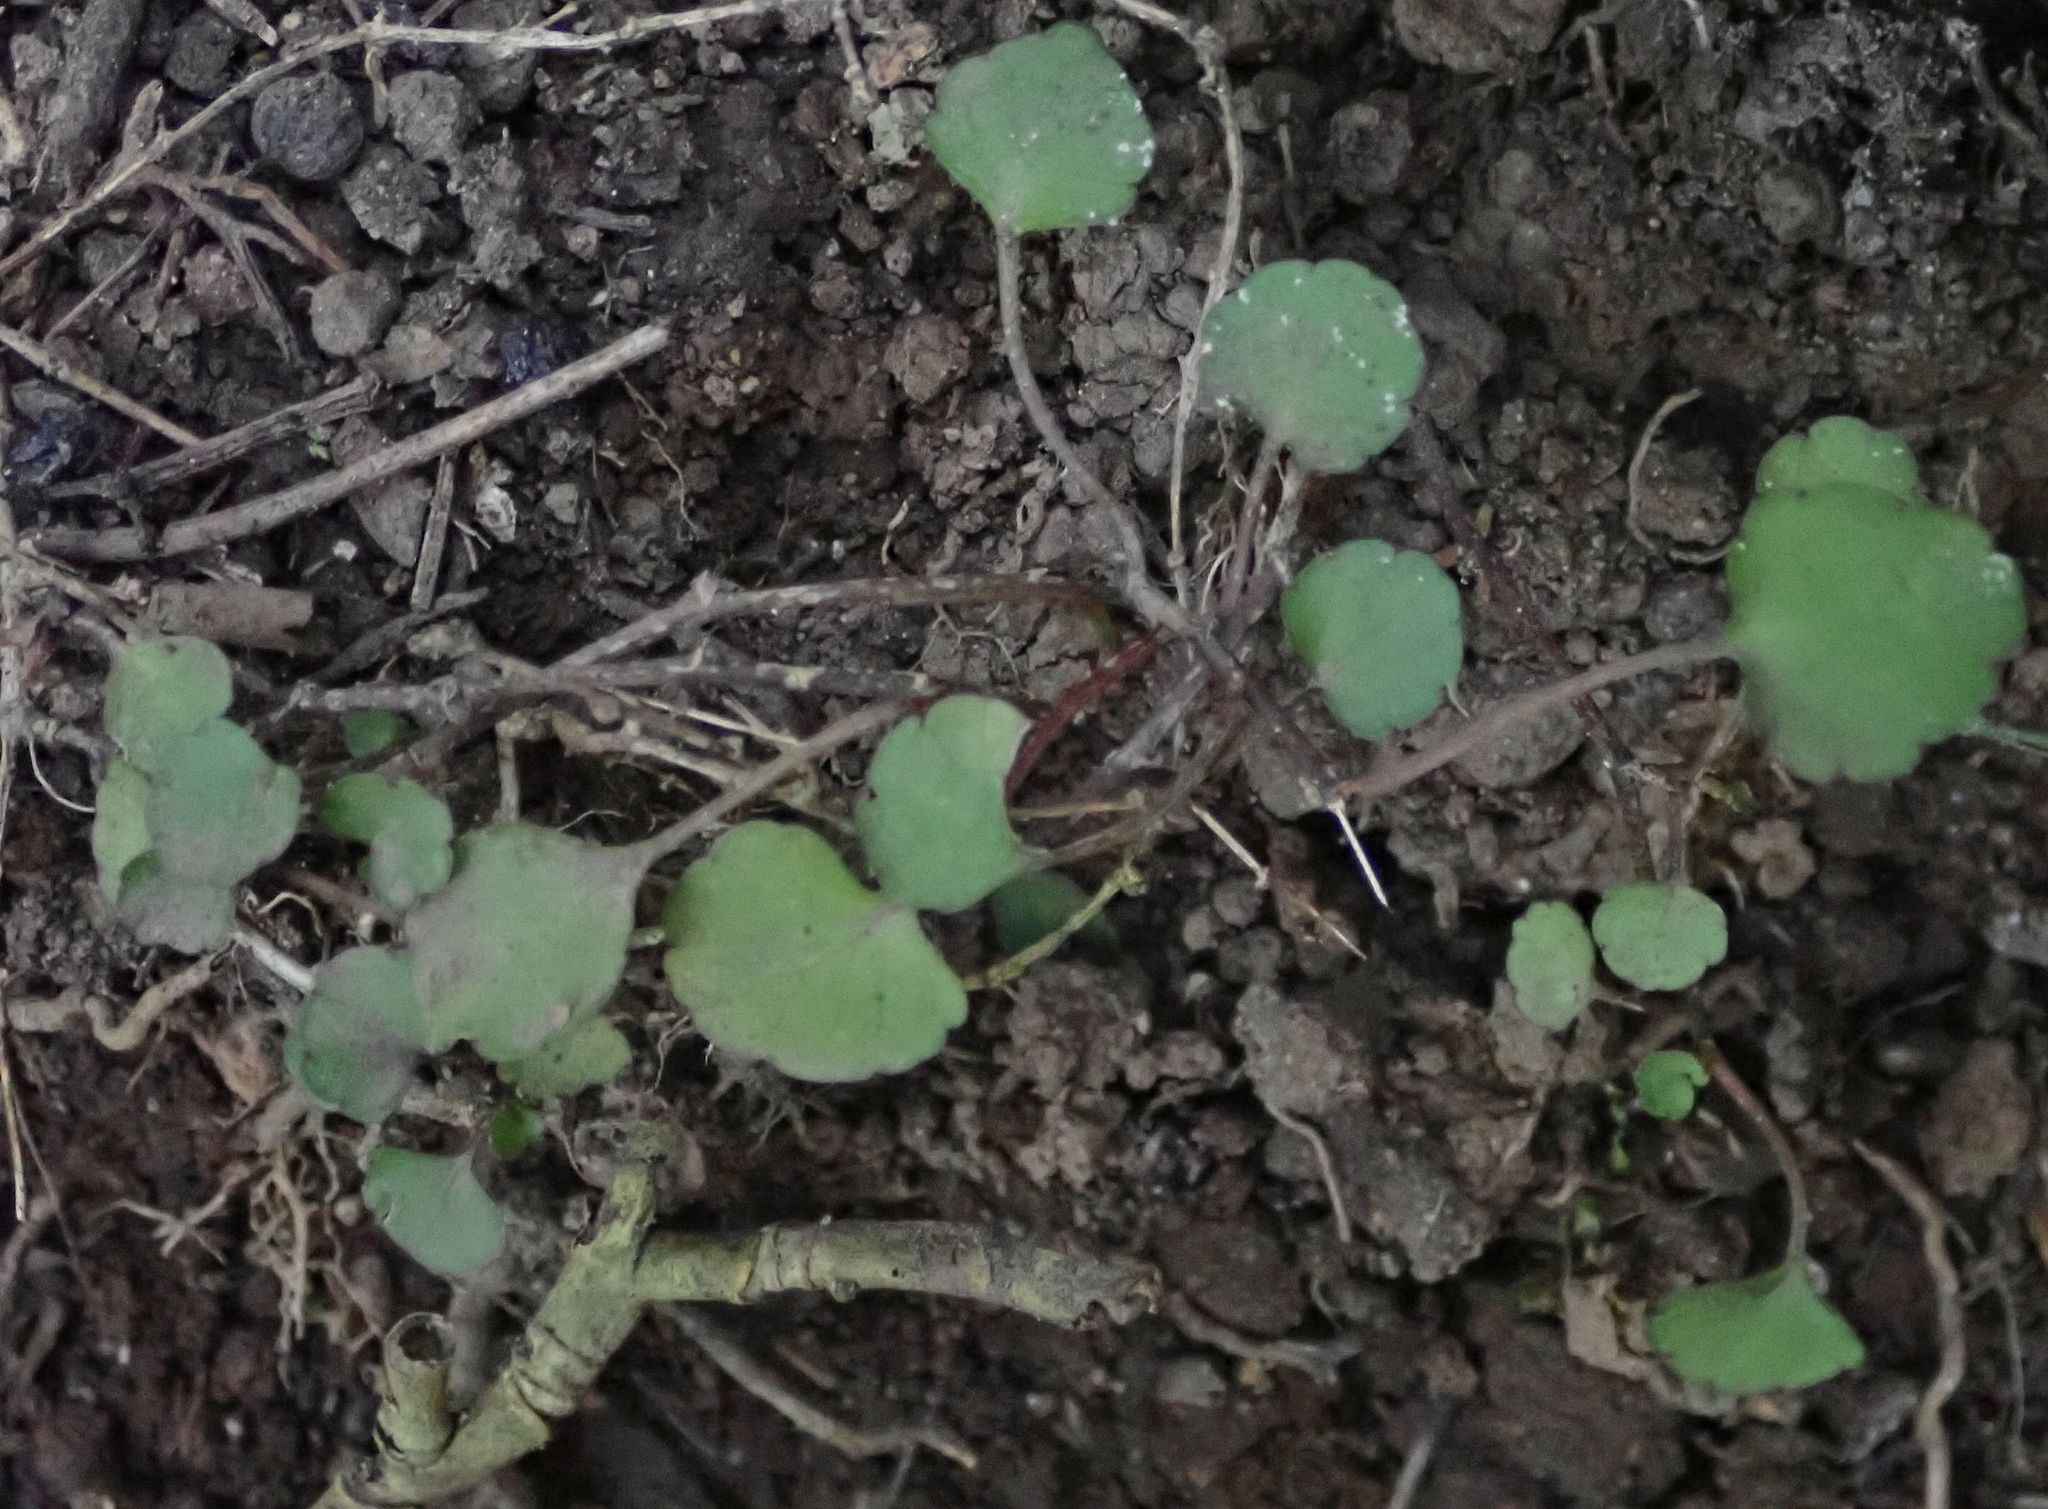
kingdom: Plantae
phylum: Tracheophyta
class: Magnoliopsida
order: Malpighiales
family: Violaceae
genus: Viola
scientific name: Viola filicaulis
